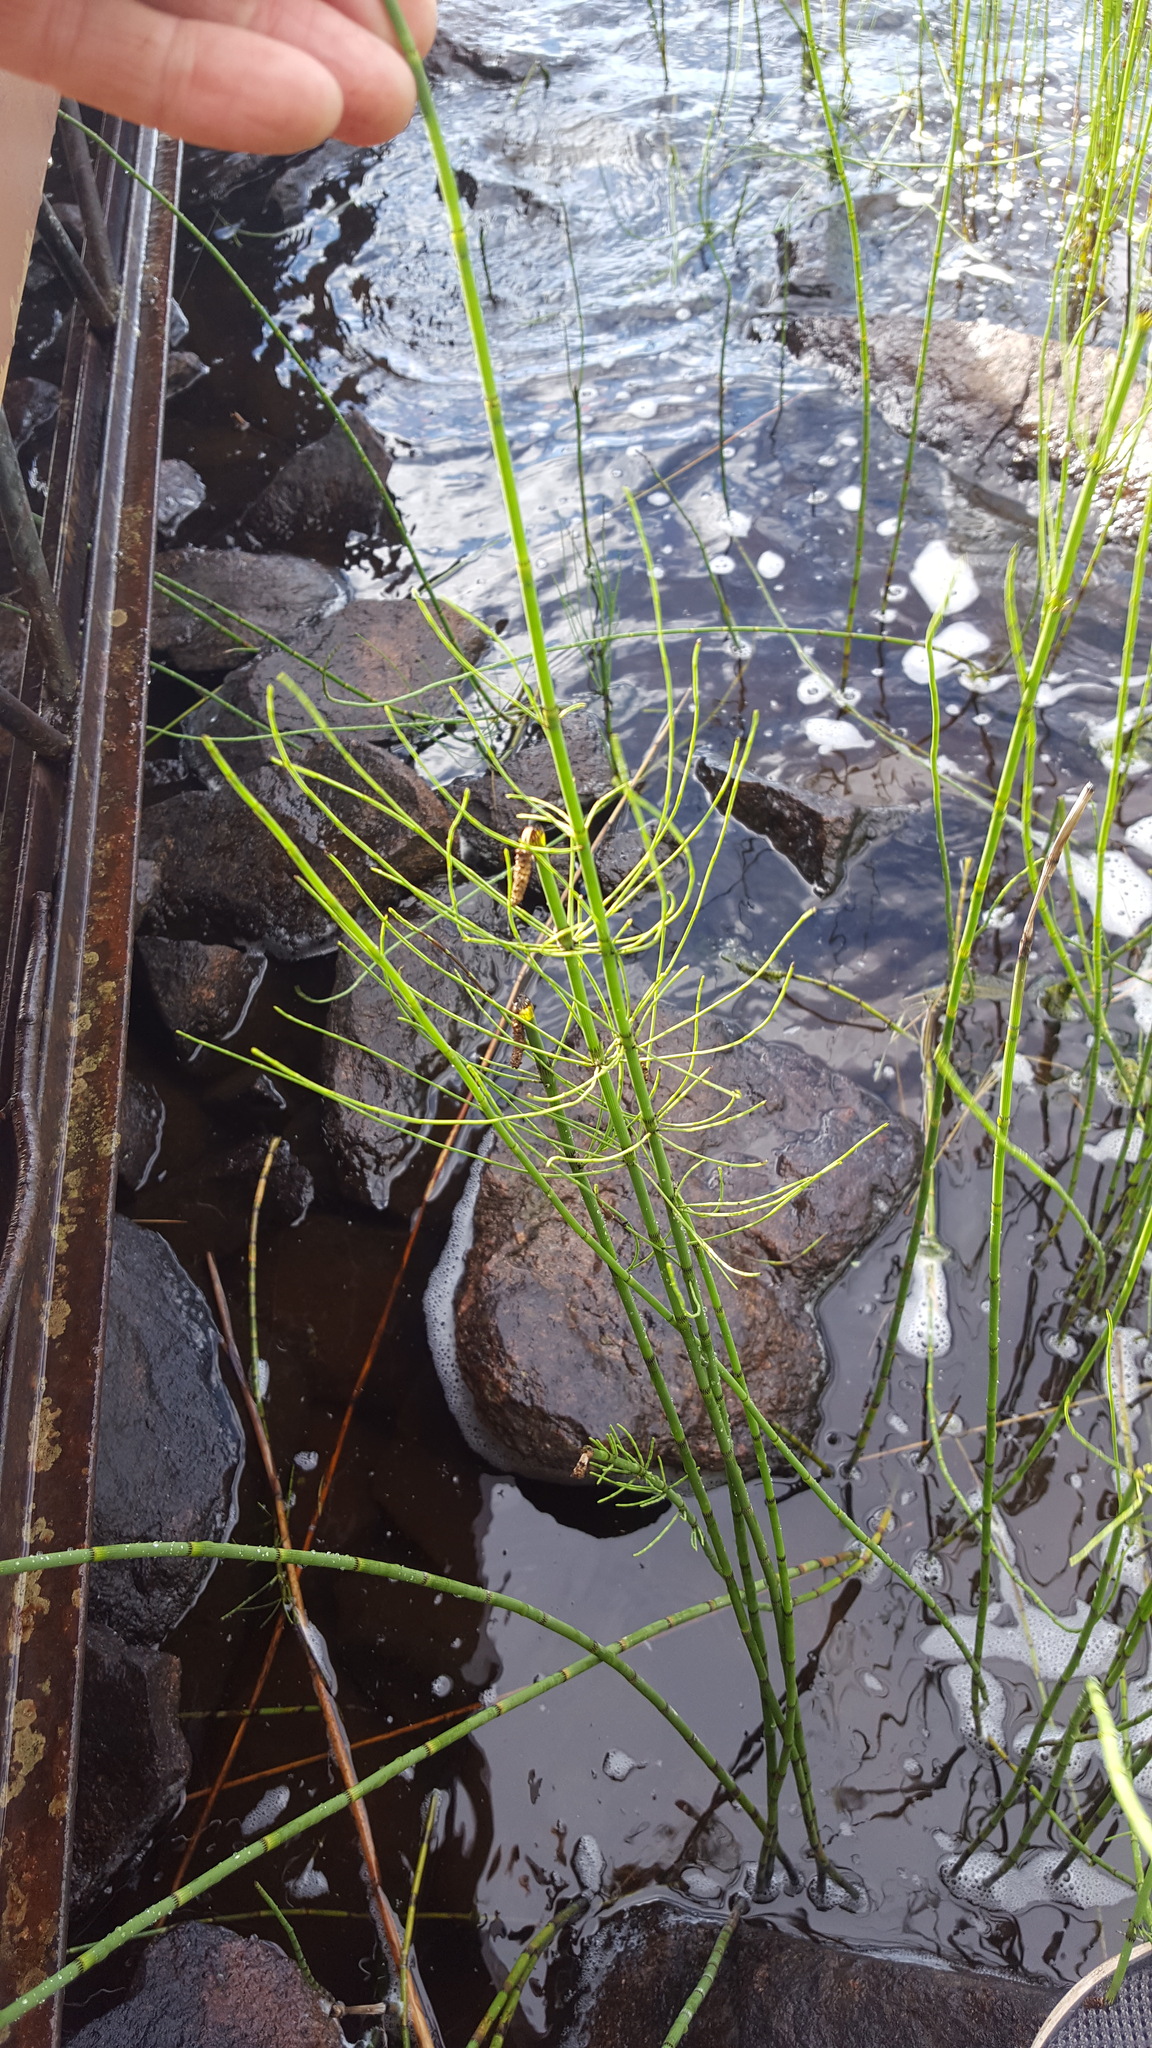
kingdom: Plantae
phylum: Tracheophyta
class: Polypodiopsida
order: Equisetales
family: Equisetaceae
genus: Equisetum
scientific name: Equisetum fluviatile
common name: Water horsetail
